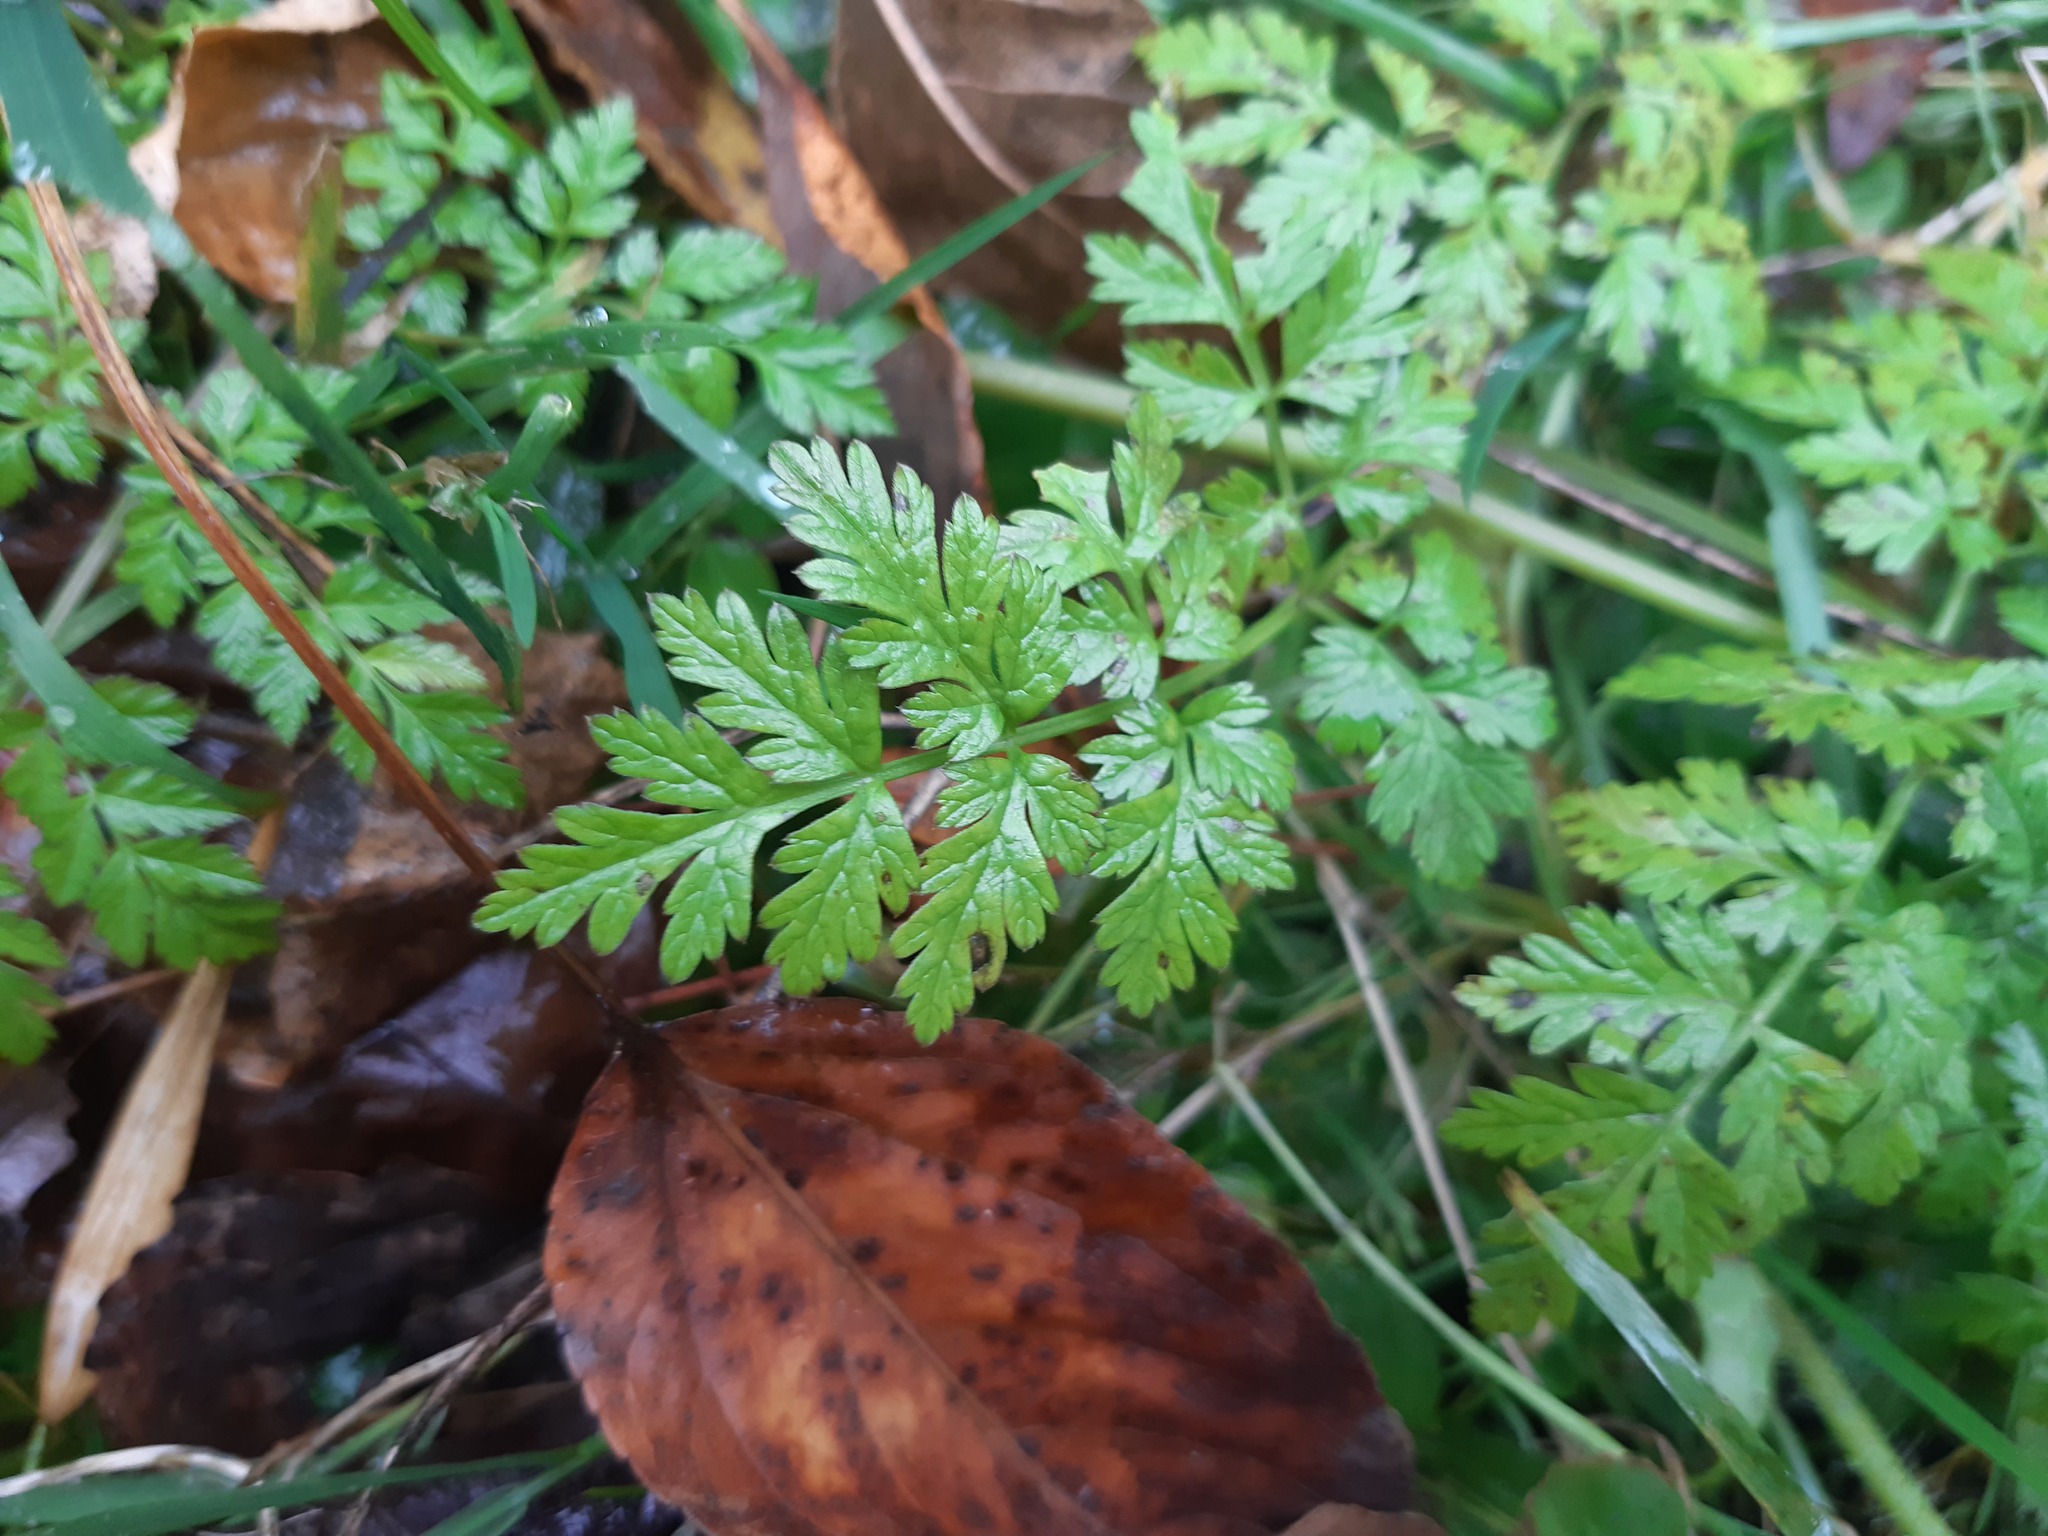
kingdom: Plantae
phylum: Tracheophyta
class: Magnoliopsida
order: Apiales
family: Apiaceae
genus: Anthriscus
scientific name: Anthriscus sylvestris
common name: Cow parsley
